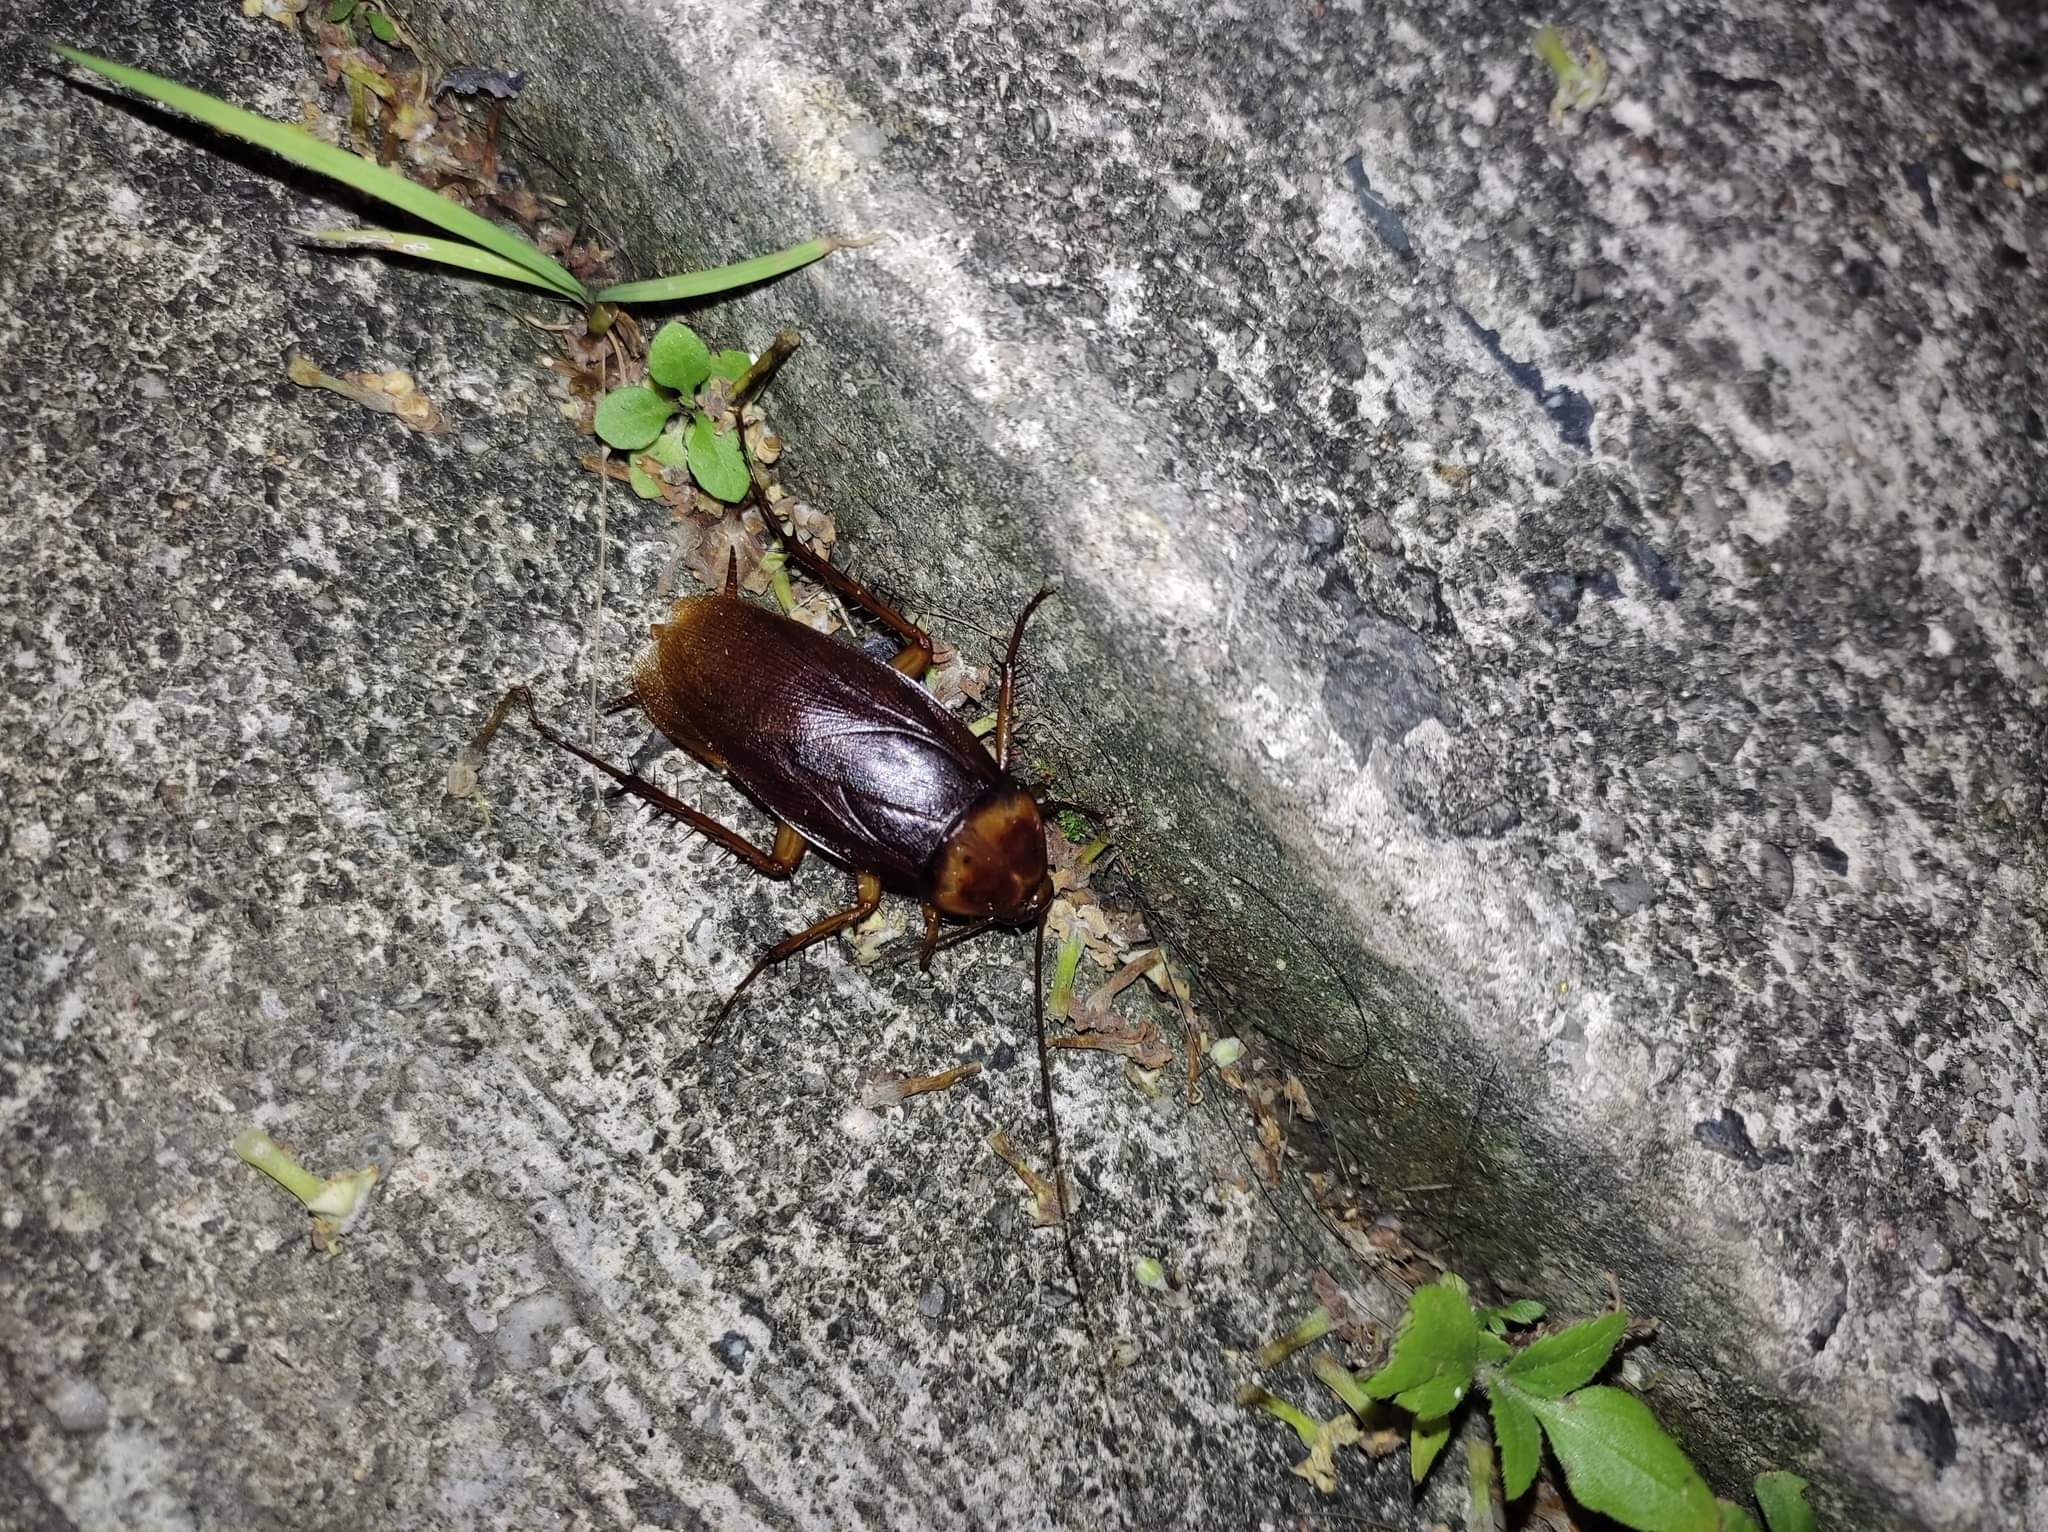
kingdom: Animalia
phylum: Arthropoda
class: Insecta
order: Blattodea
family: Blattidae
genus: Periplaneta
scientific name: Periplaneta americana
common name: American cockroach
